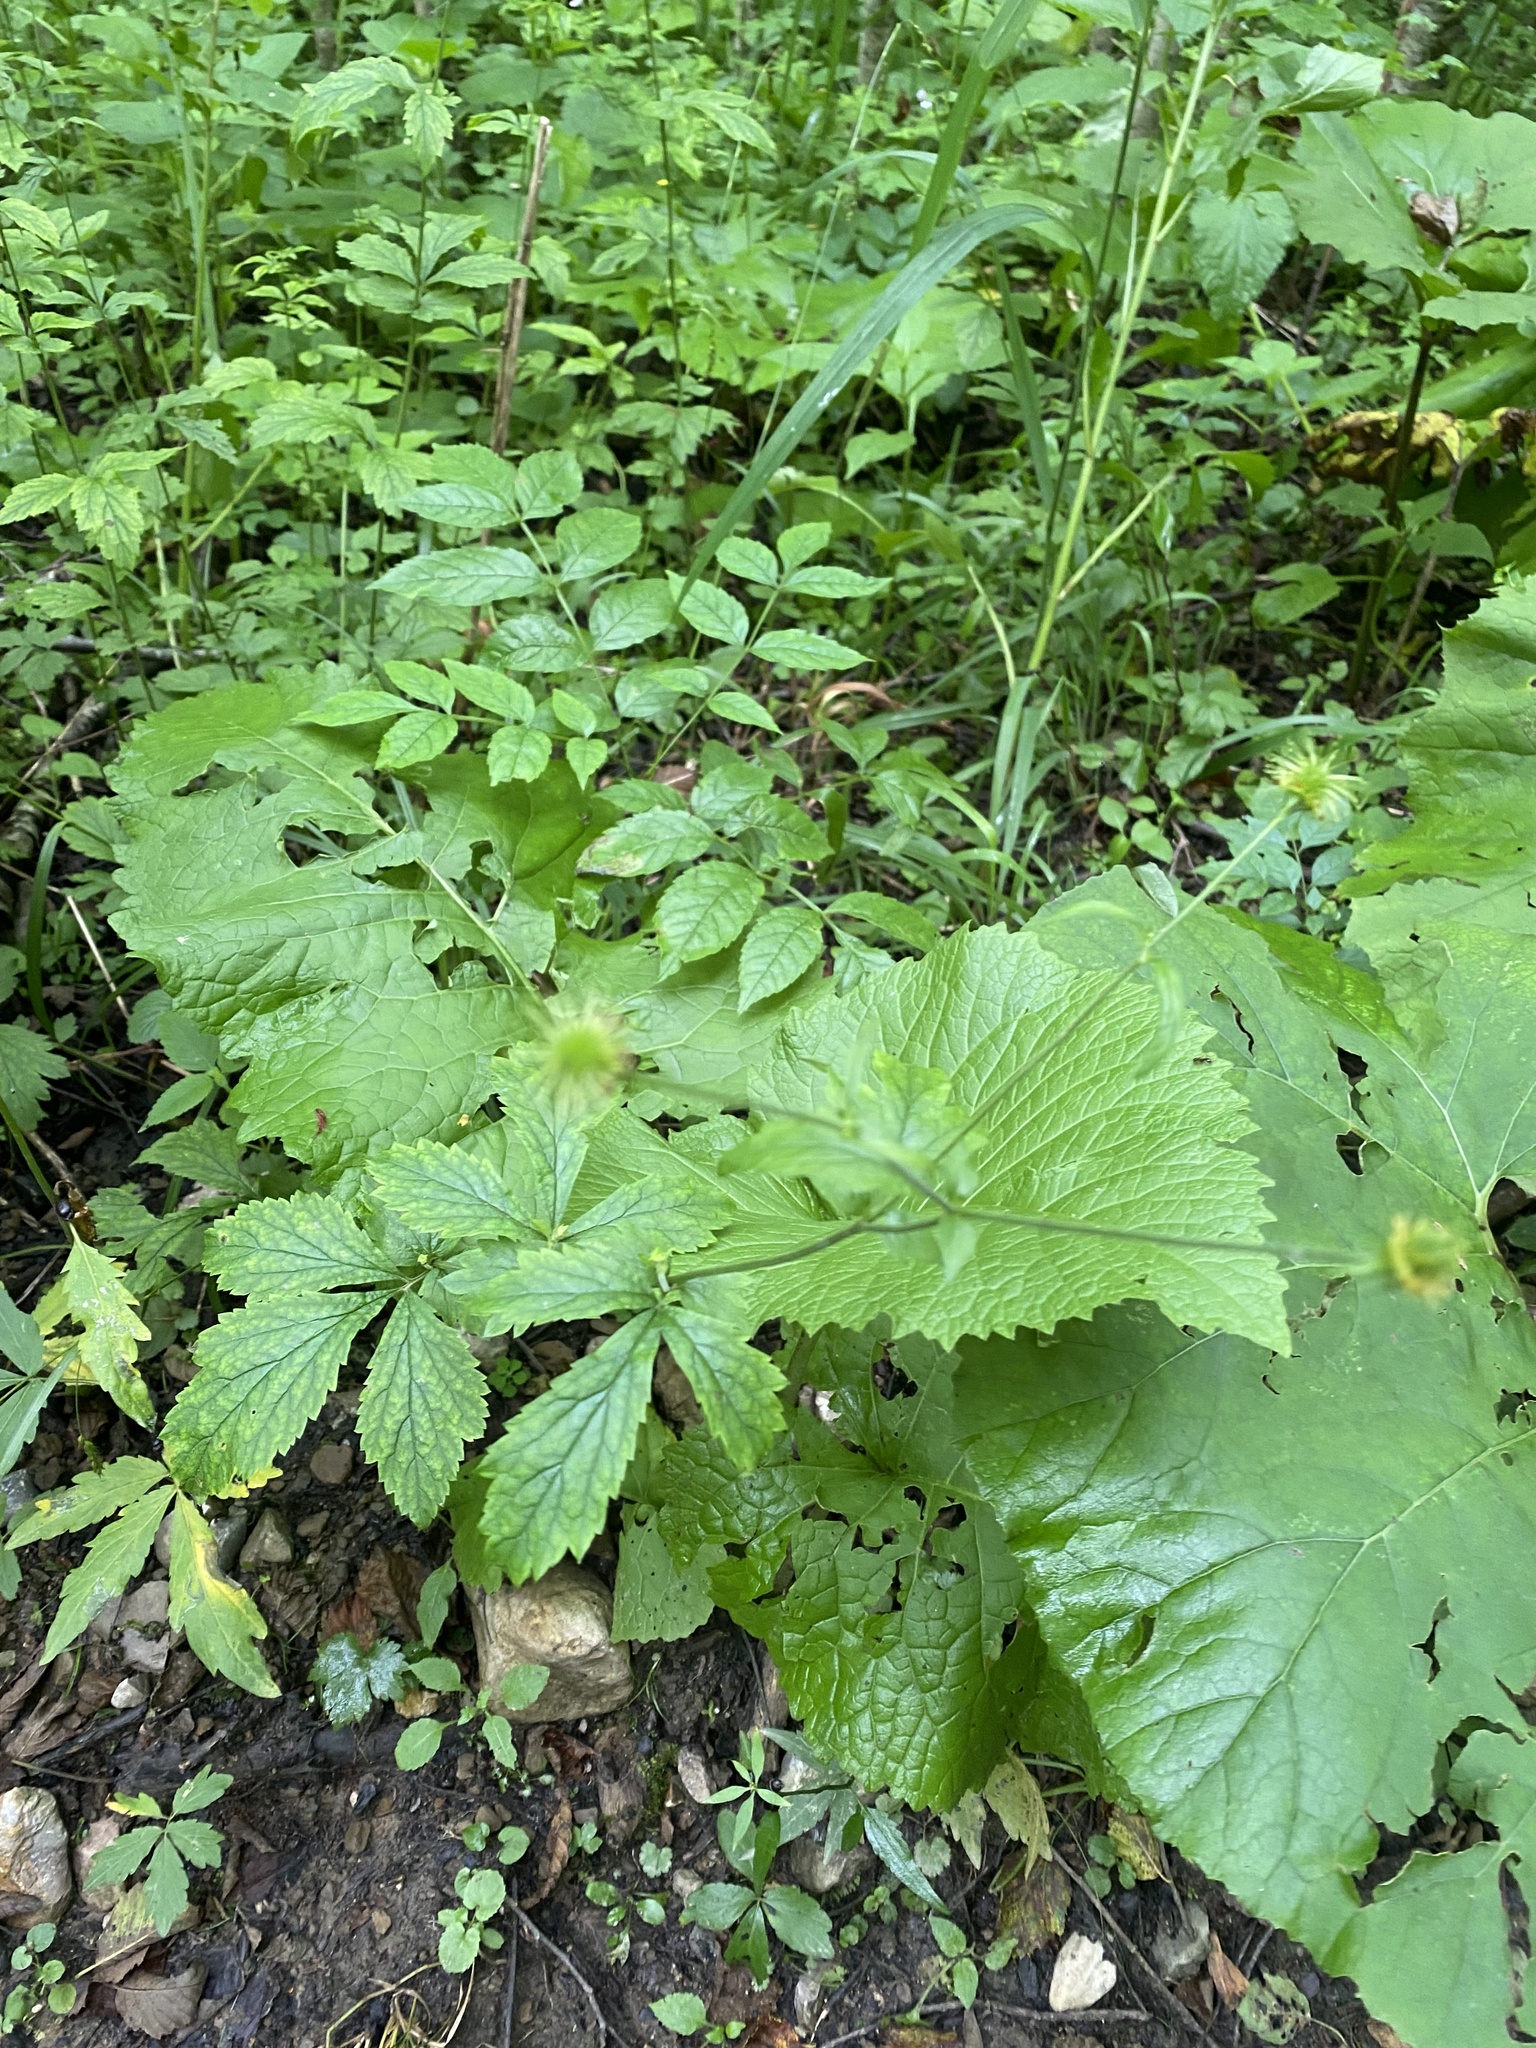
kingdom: Plantae
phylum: Tracheophyta
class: Magnoliopsida
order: Rosales
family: Rosaceae
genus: Geum
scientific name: Geum urbanum
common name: Wood avens
